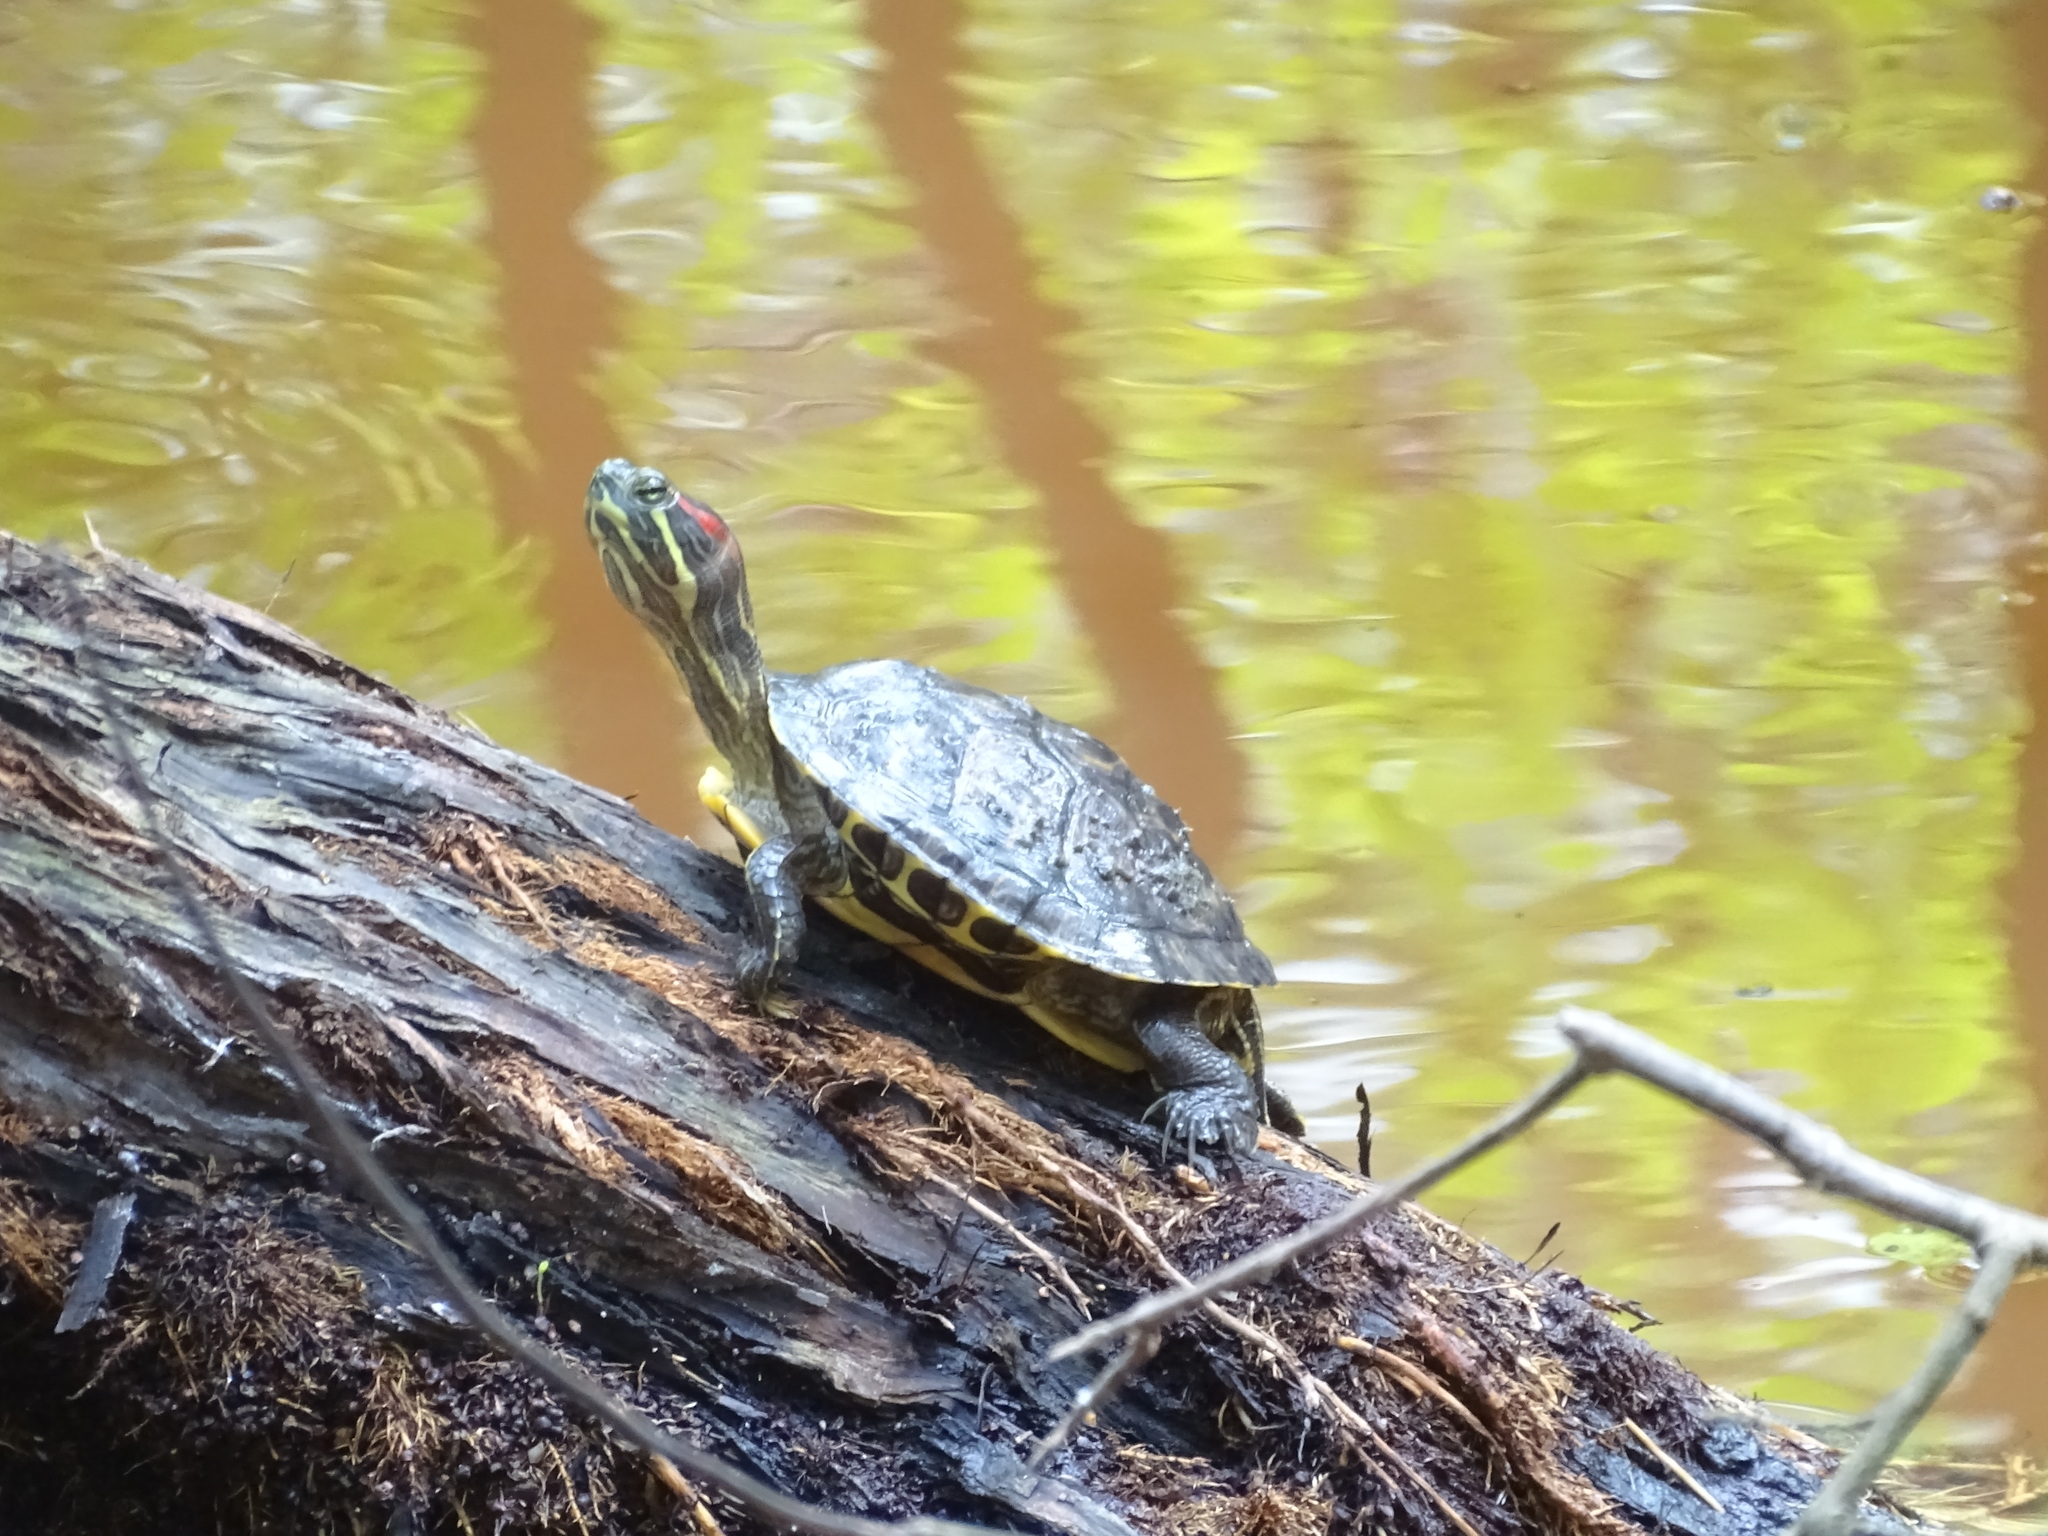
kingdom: Animalia
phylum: Chordata
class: Testudines
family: Emydidae
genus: Trachemys
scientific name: Trachemys scripta
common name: Slider
